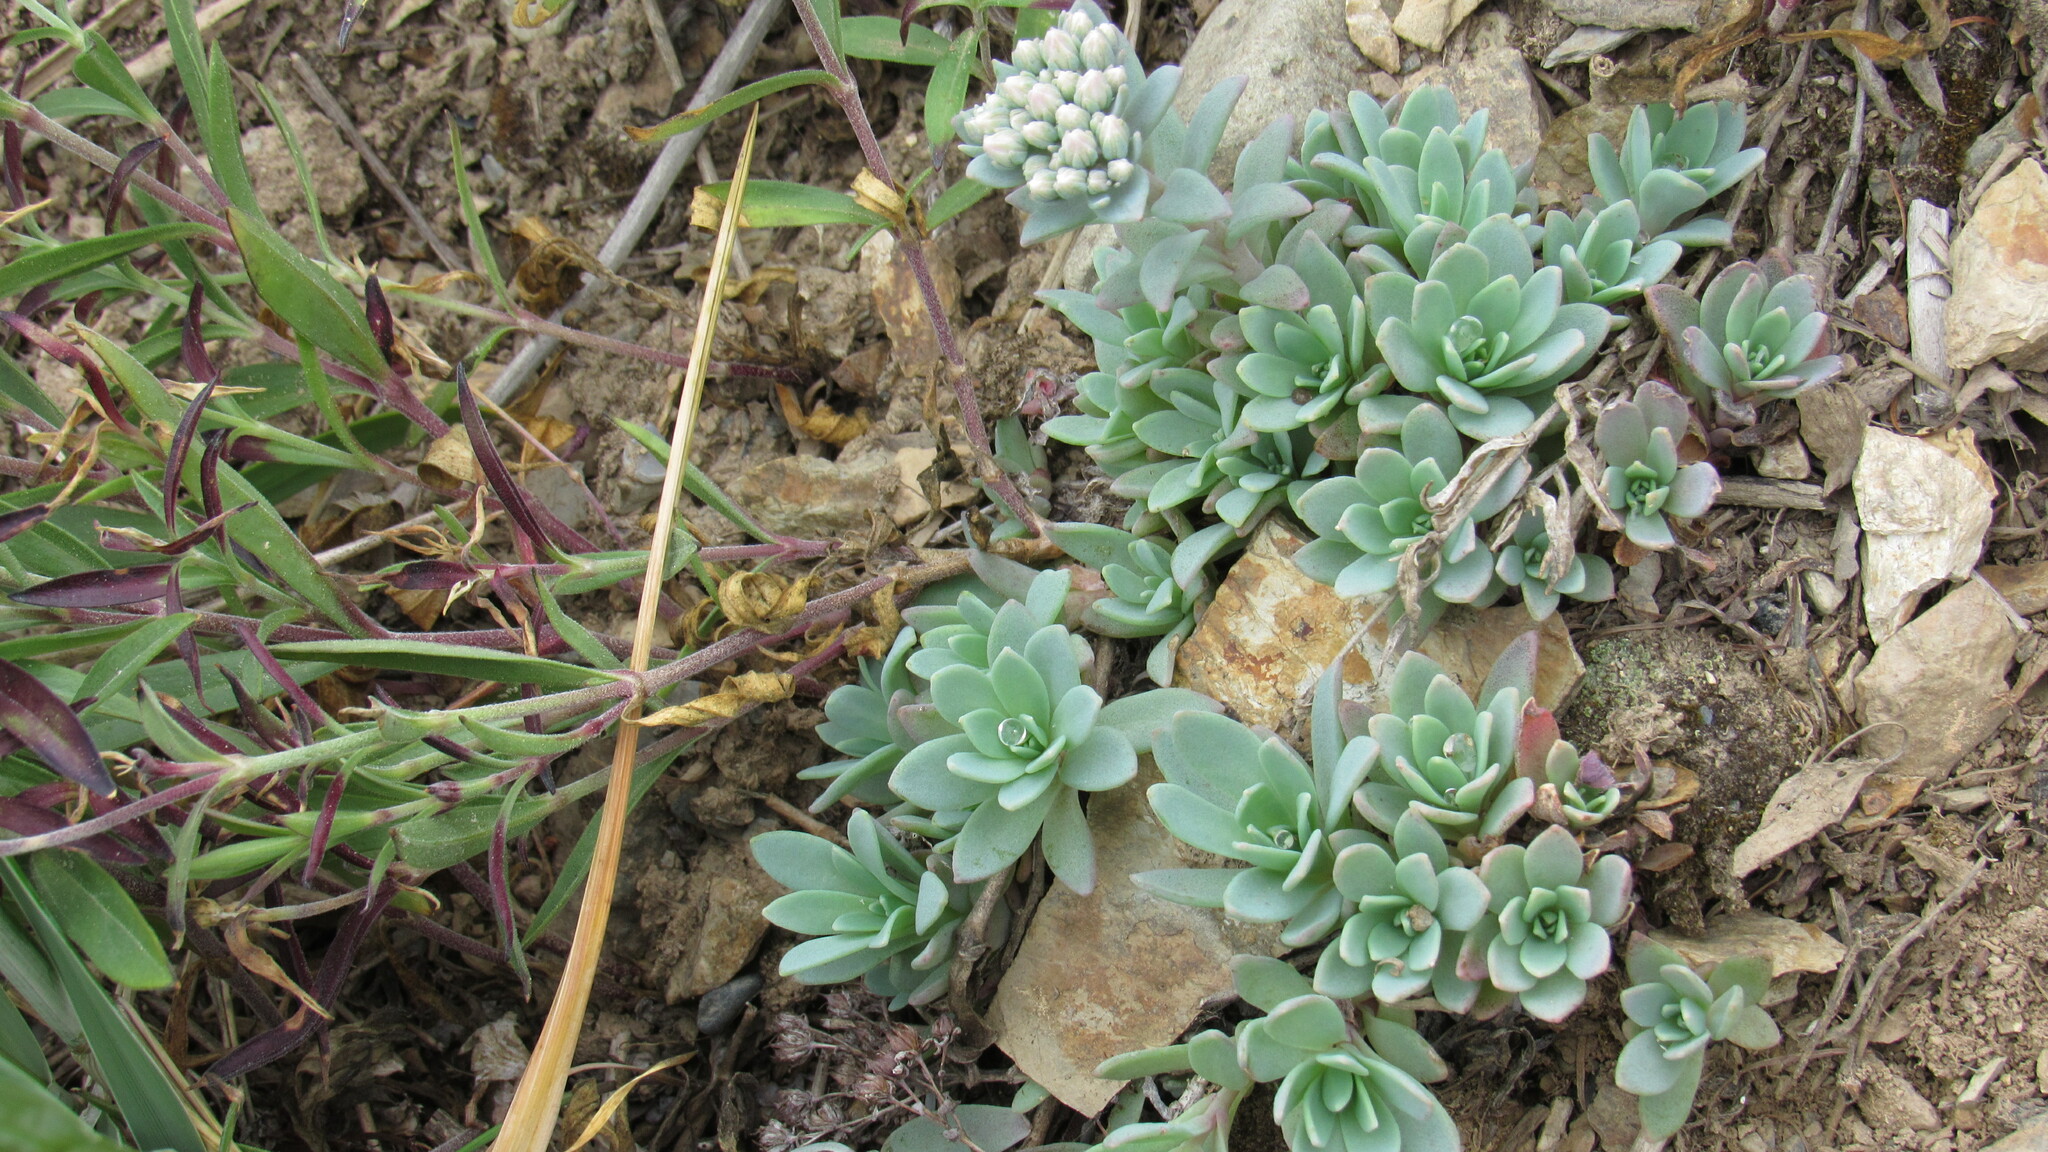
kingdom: Plantae
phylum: Tracheophyta
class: Magnoliopsida
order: Saxifragales
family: Crassulaceae
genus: Hylotelephium
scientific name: Hylotelephium cyaneum
